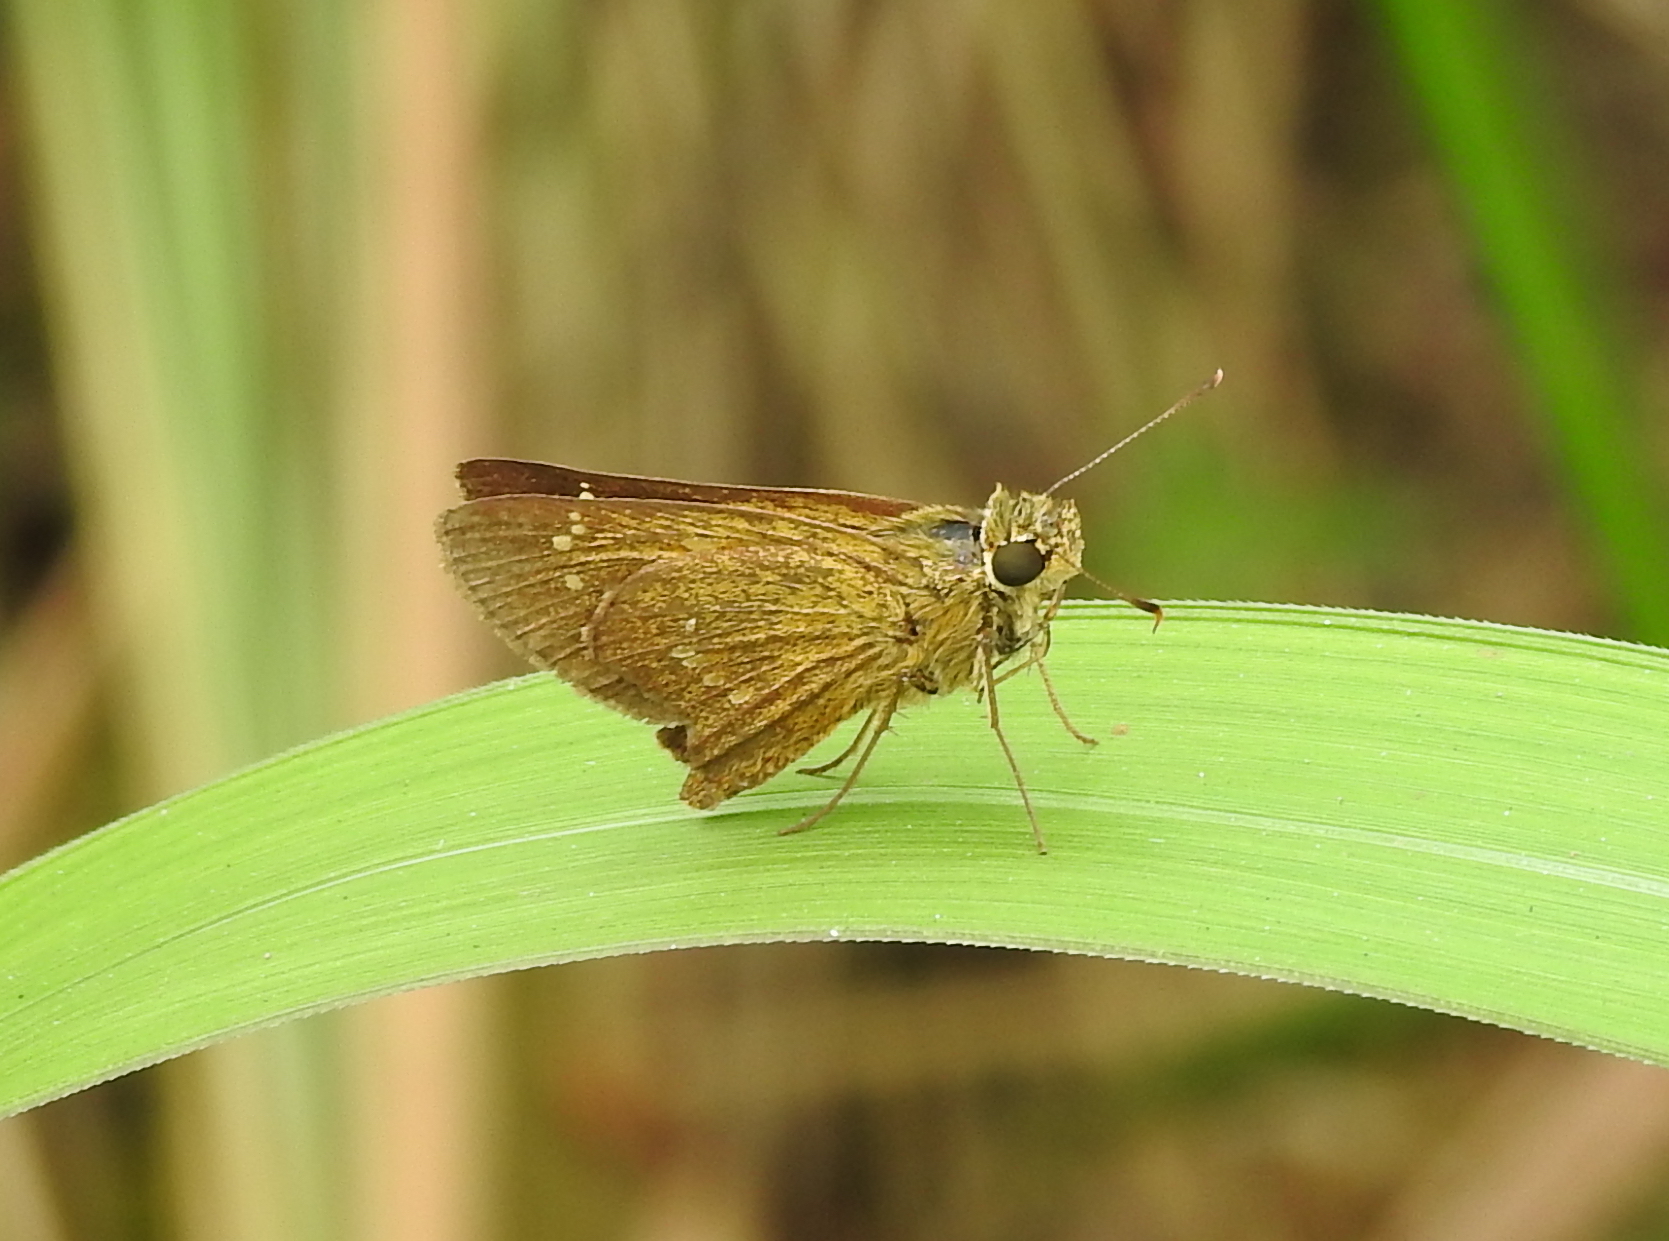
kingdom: Animalia
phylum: Arthropoda
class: Insecta
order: Lepidoptera
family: Hesperiidae
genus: Polytremis
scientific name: Polytremis lubricans
